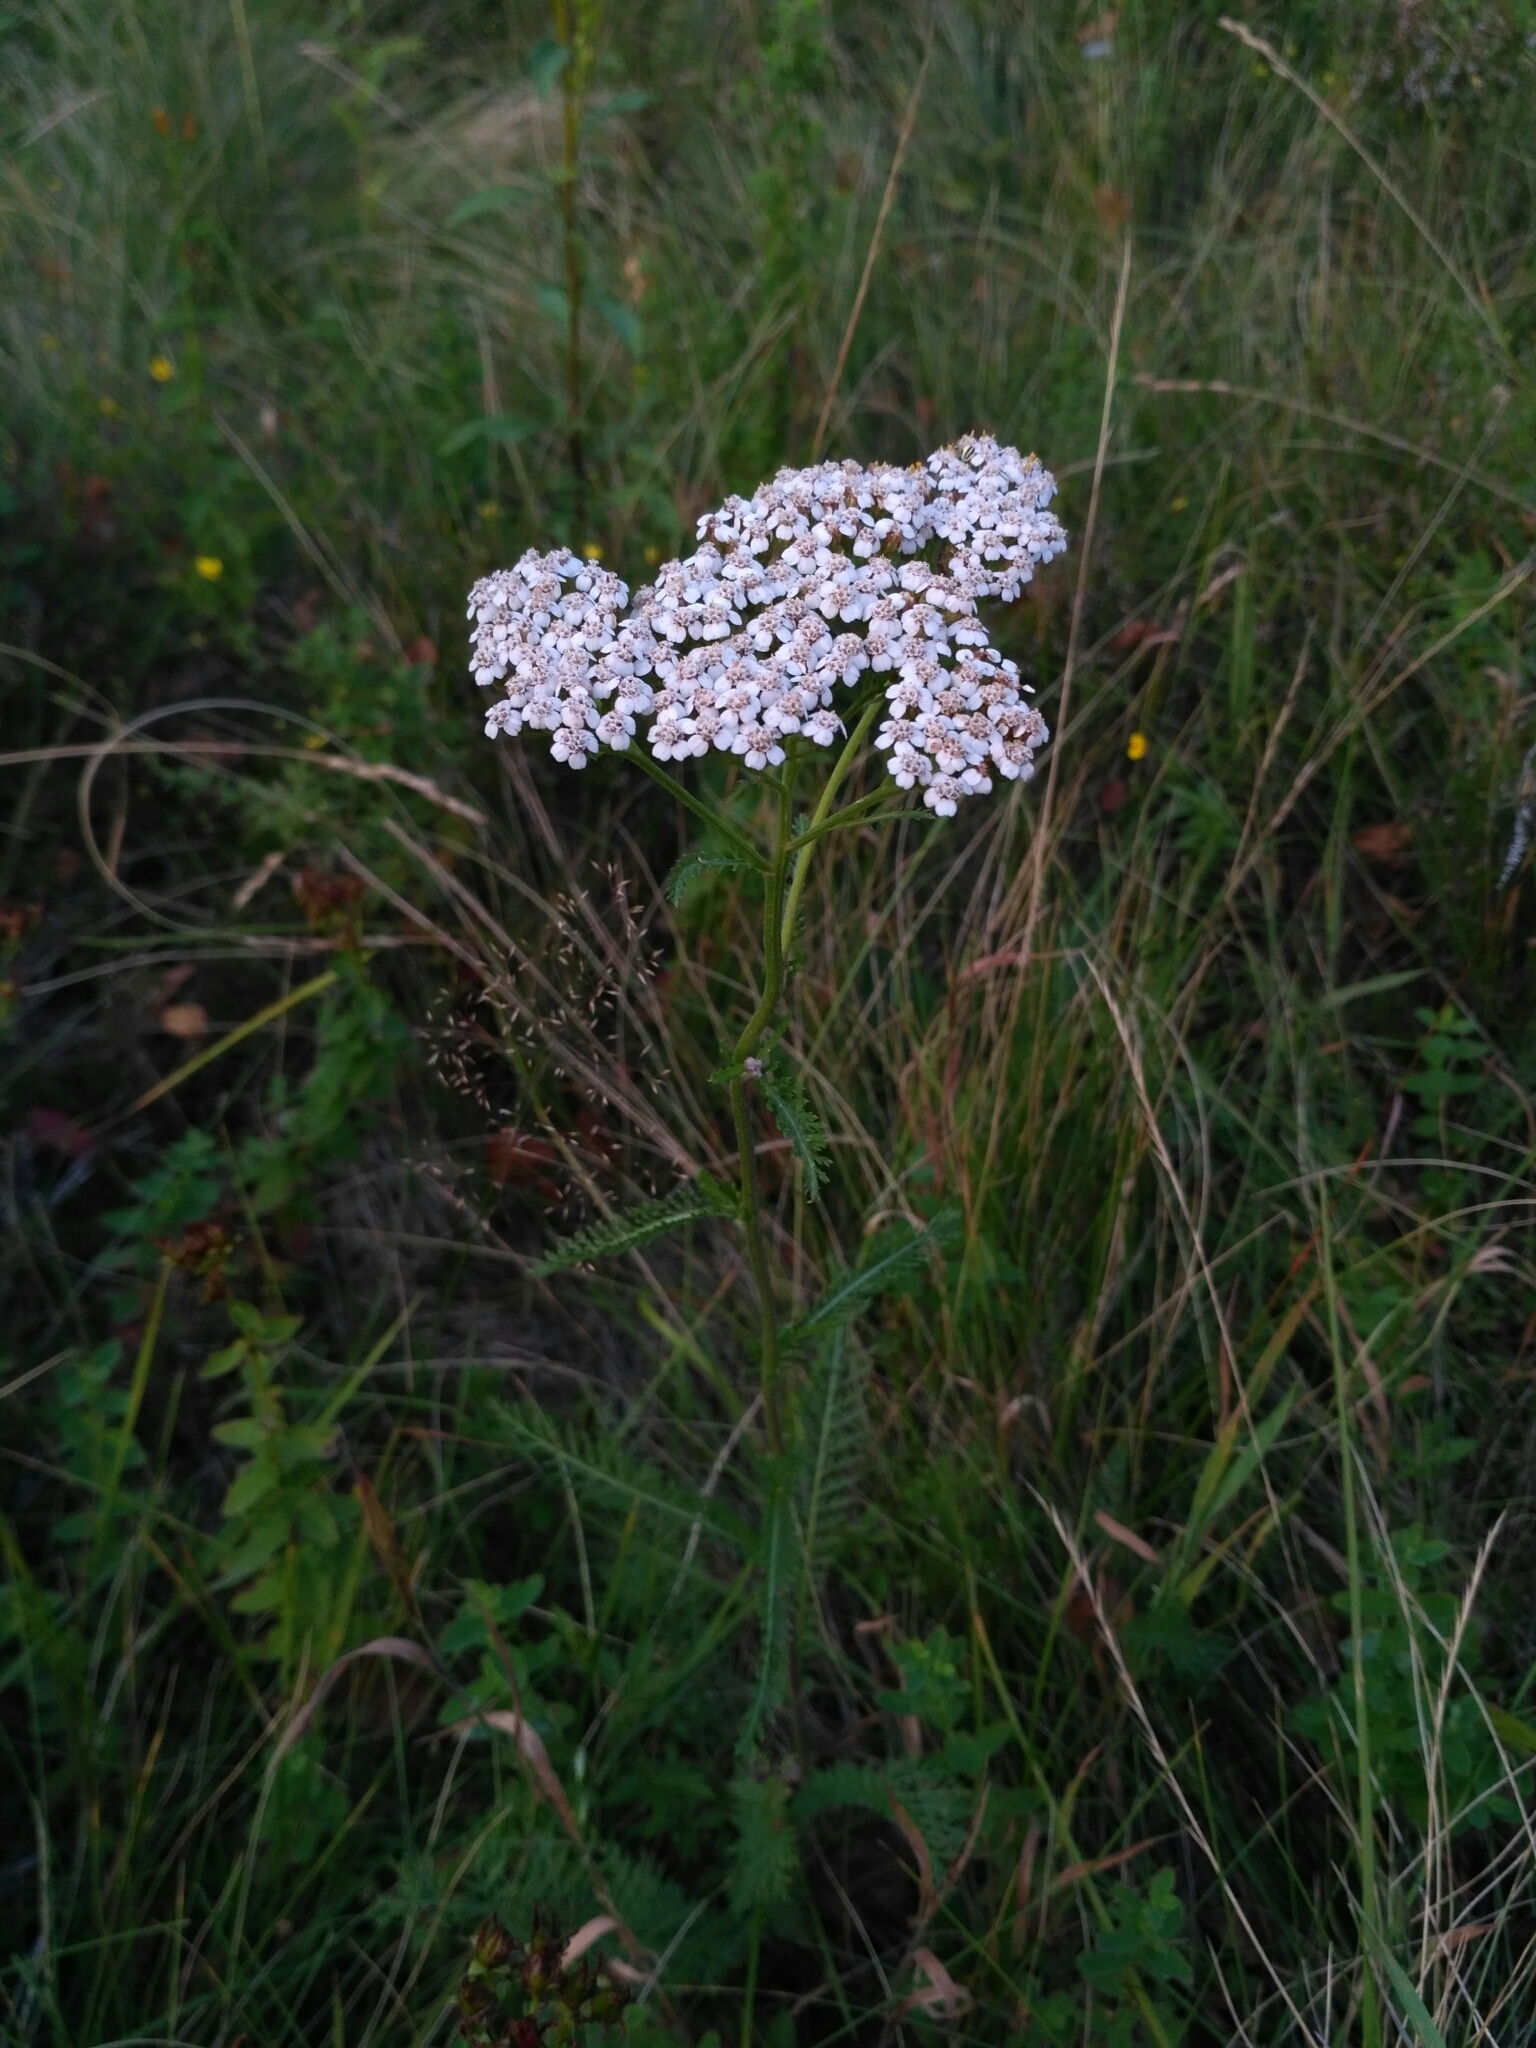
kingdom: Plantae
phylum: Tracheophyta
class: Magnoliopsida
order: Asterales
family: Asteraceae
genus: Achillea
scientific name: Achillea millefolium
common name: Yarrow
